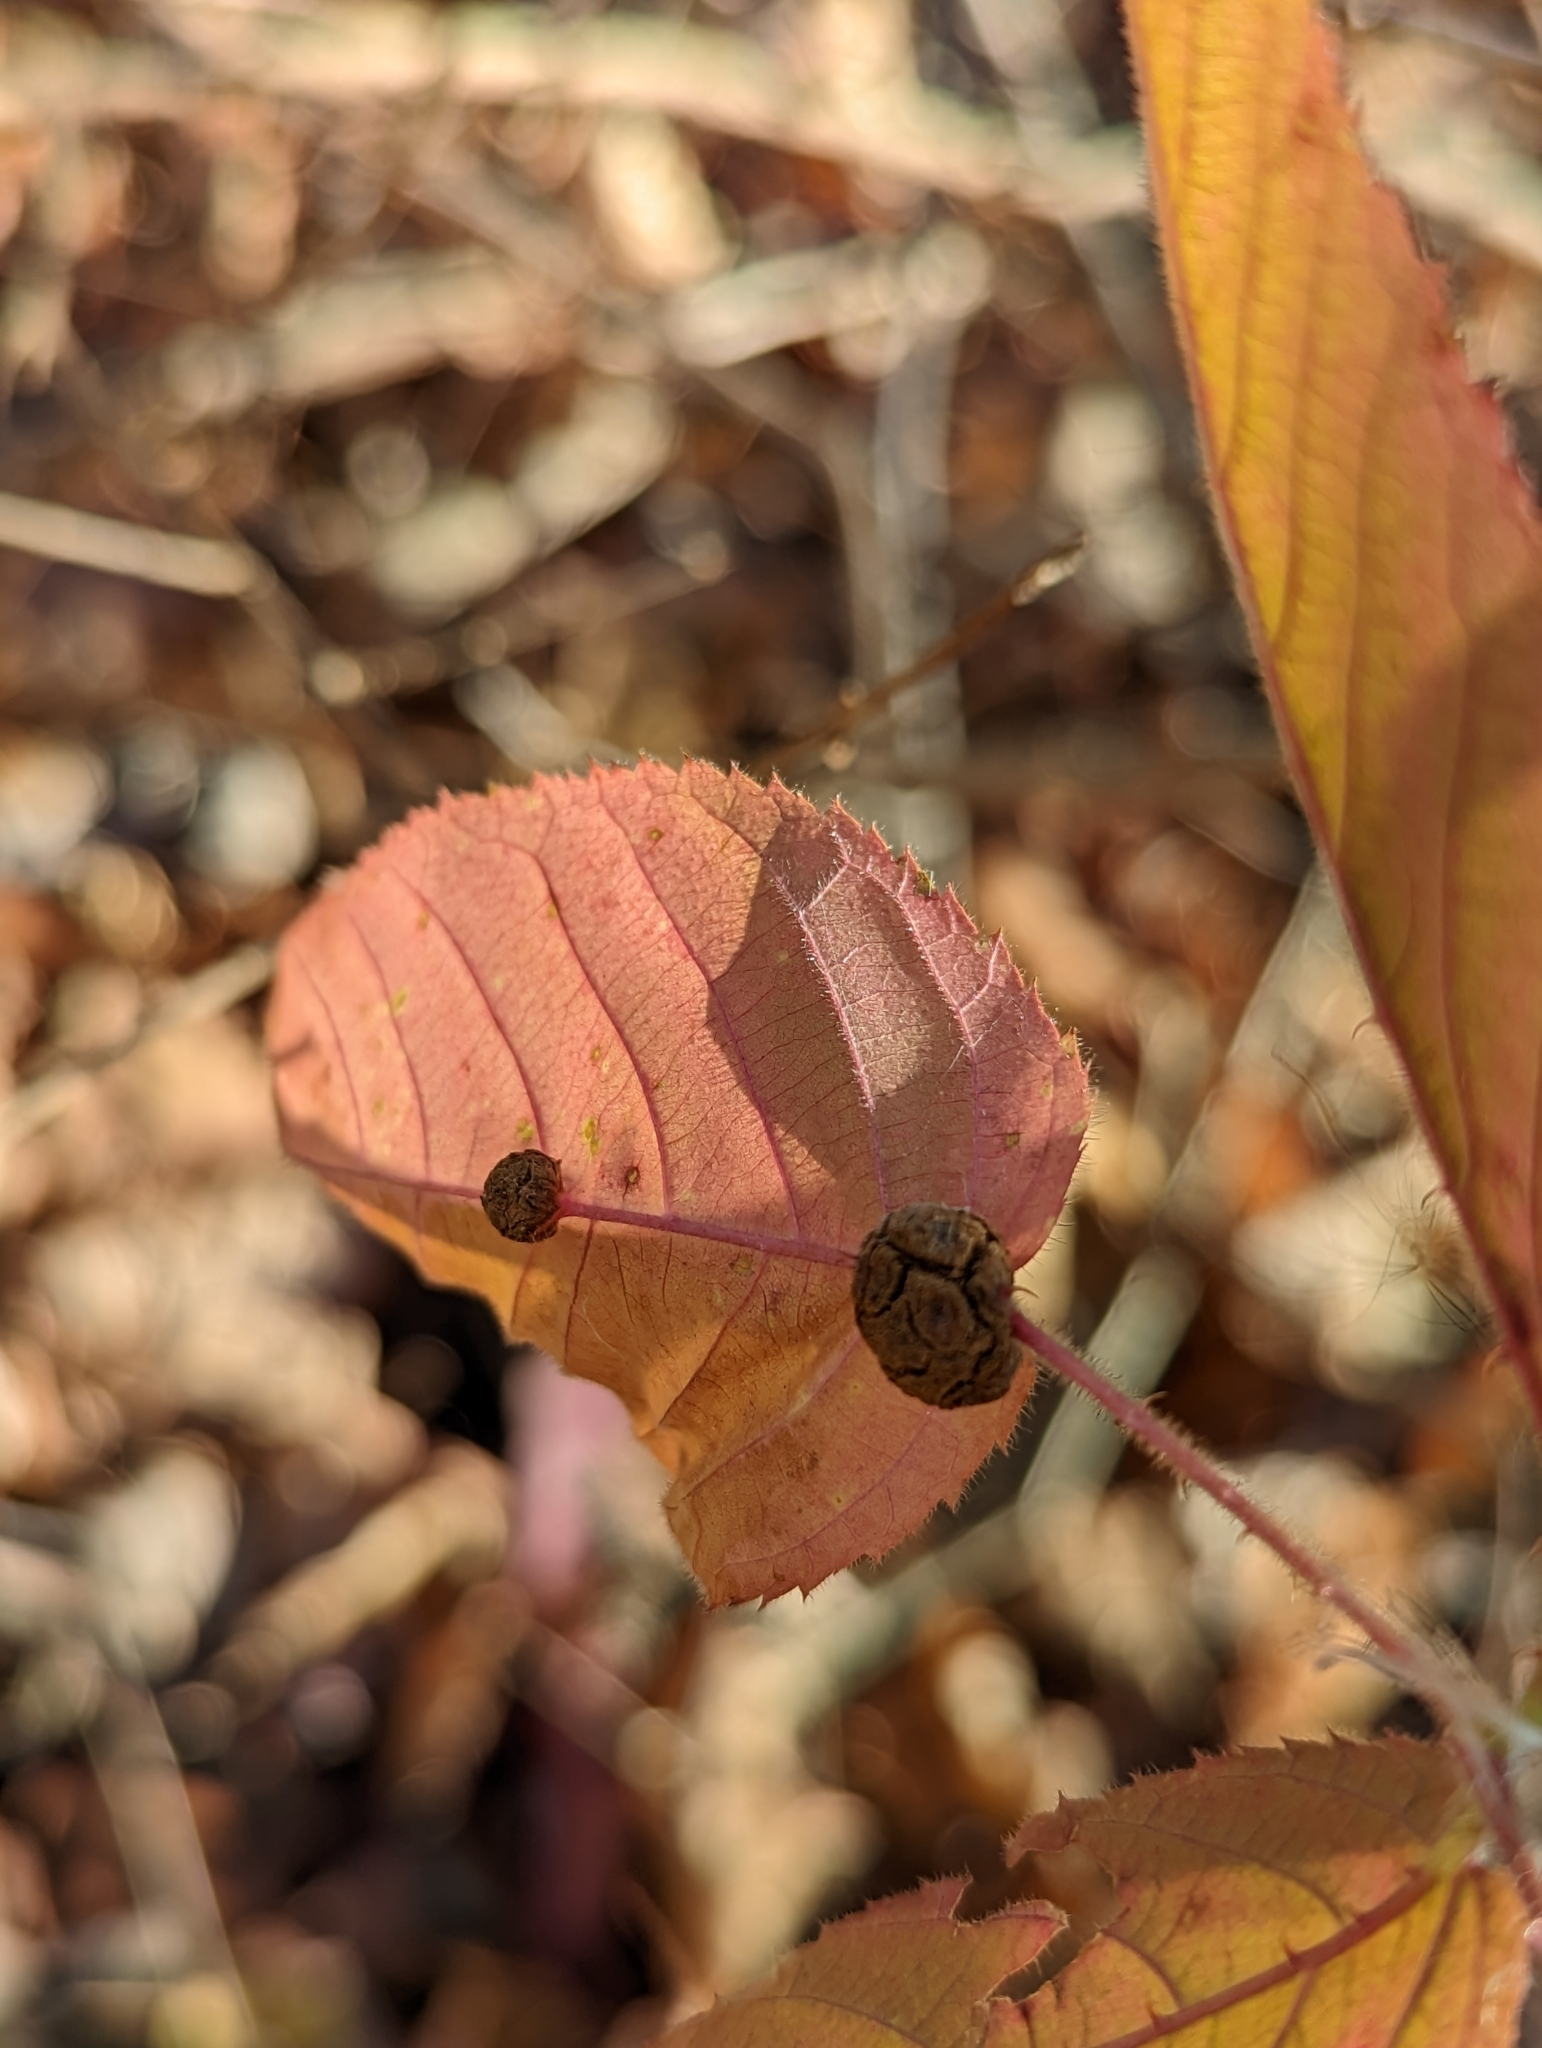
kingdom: Animalia
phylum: Arthropoda
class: Insecta
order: Diptera
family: Cecidomyiidae
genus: Neolasioptera
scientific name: Neolasioptera farinosa
